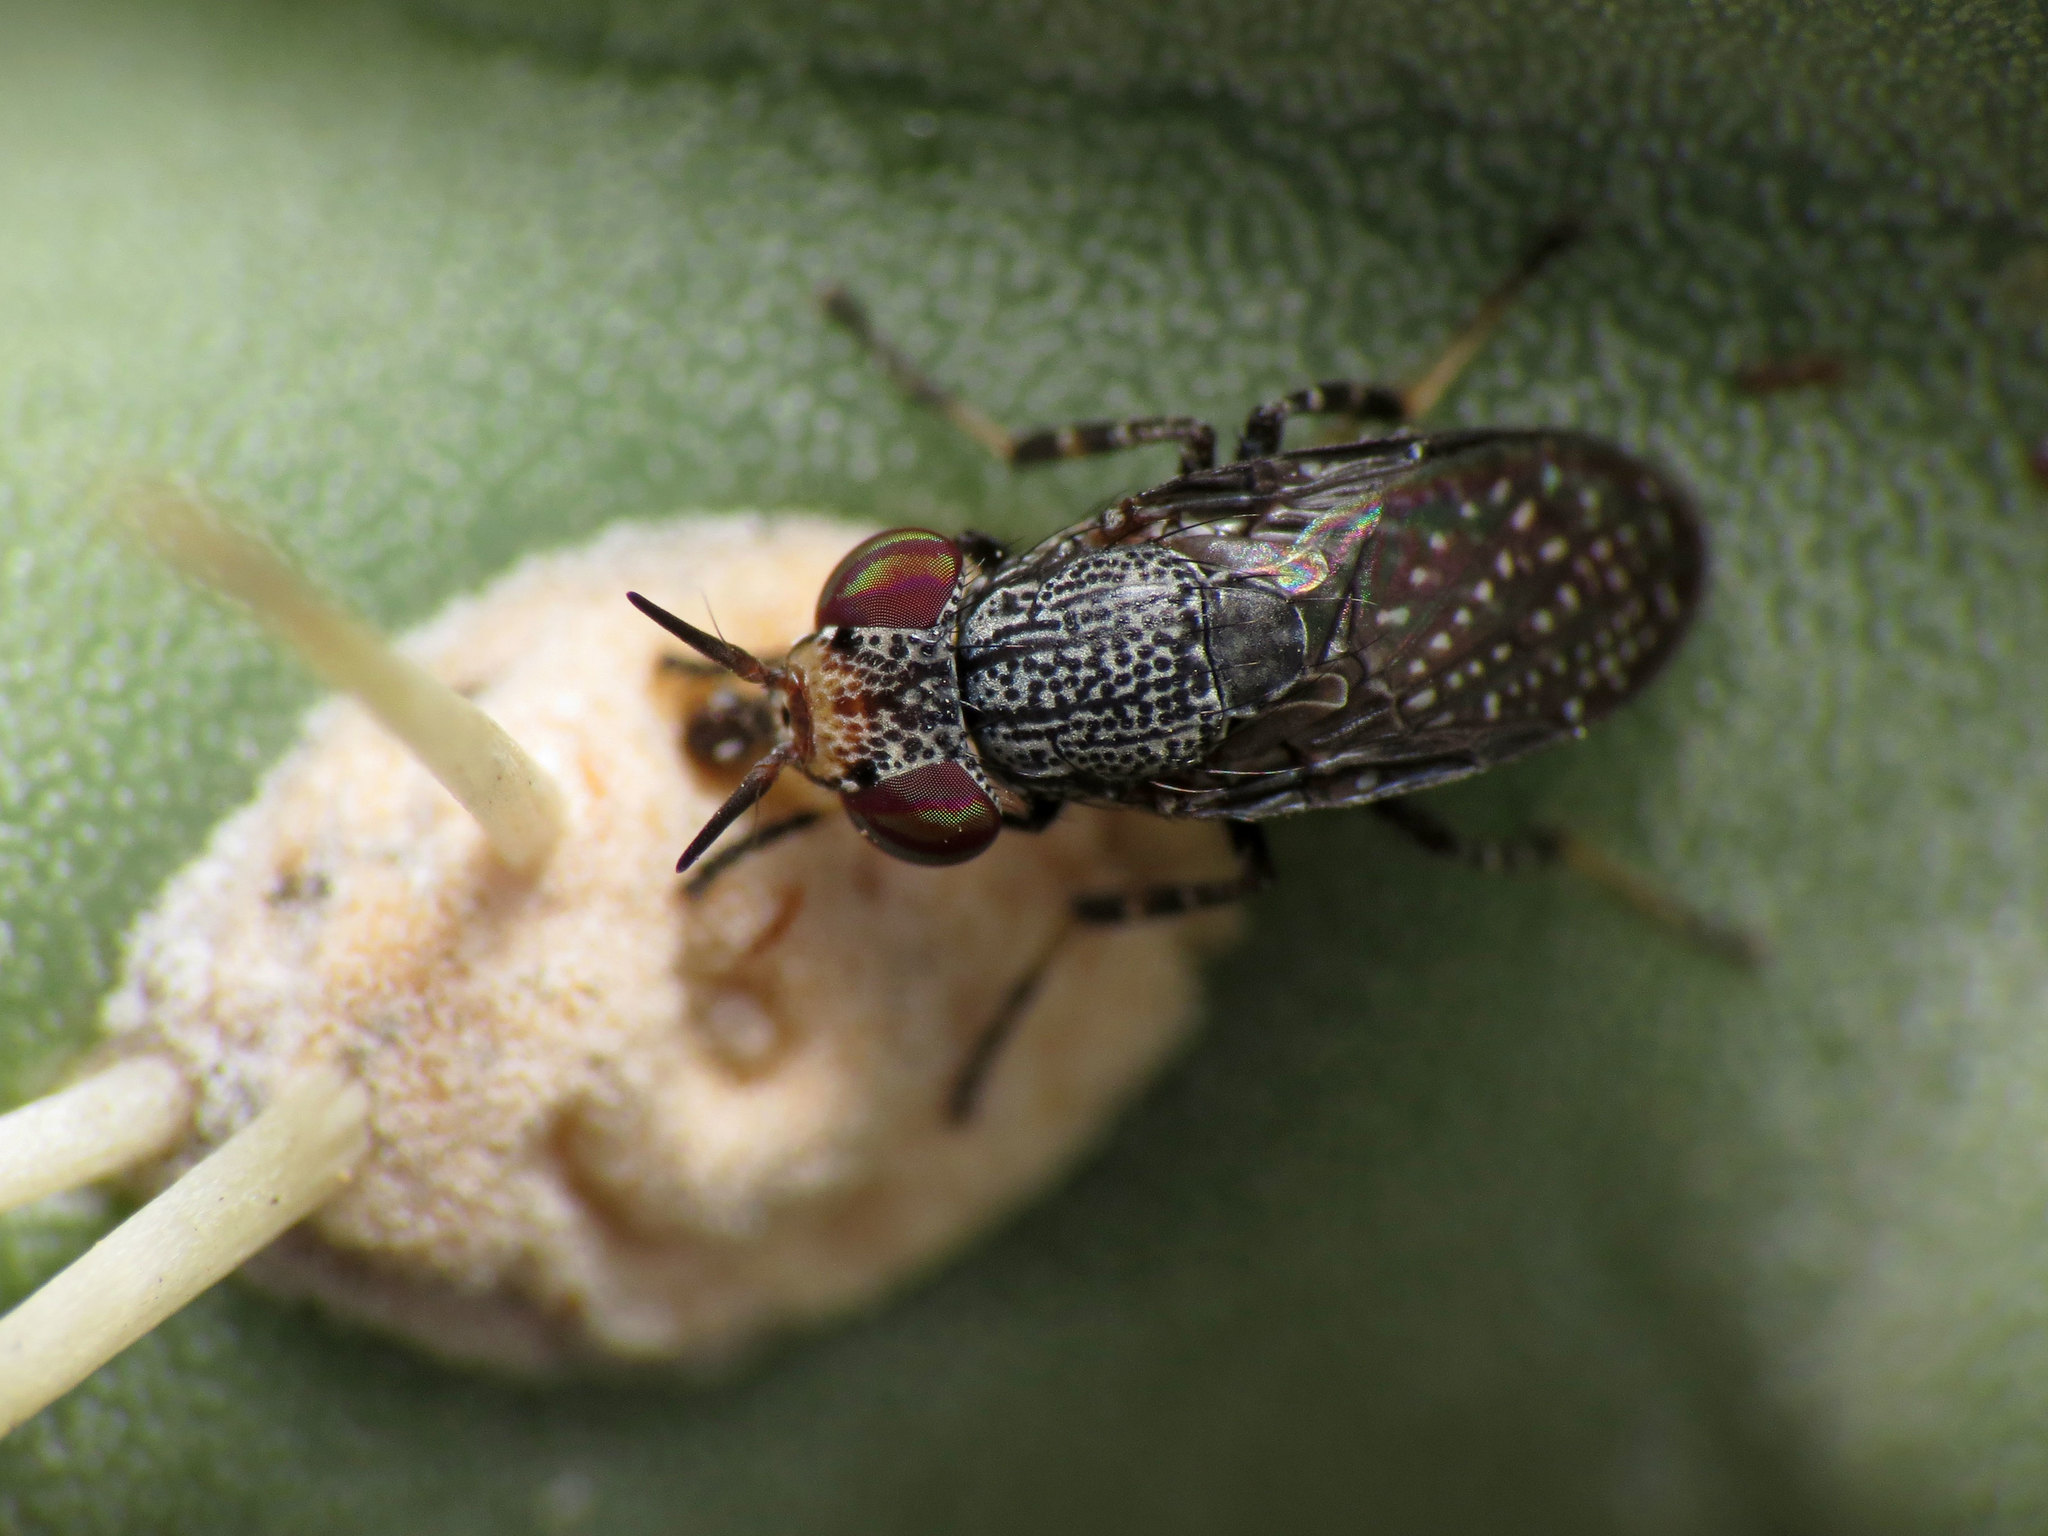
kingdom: Animalia
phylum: Arthropoda
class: Insecta
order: Diptera
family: Ulidiidae
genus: Stictomyia
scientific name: Stictomyia longicornis
